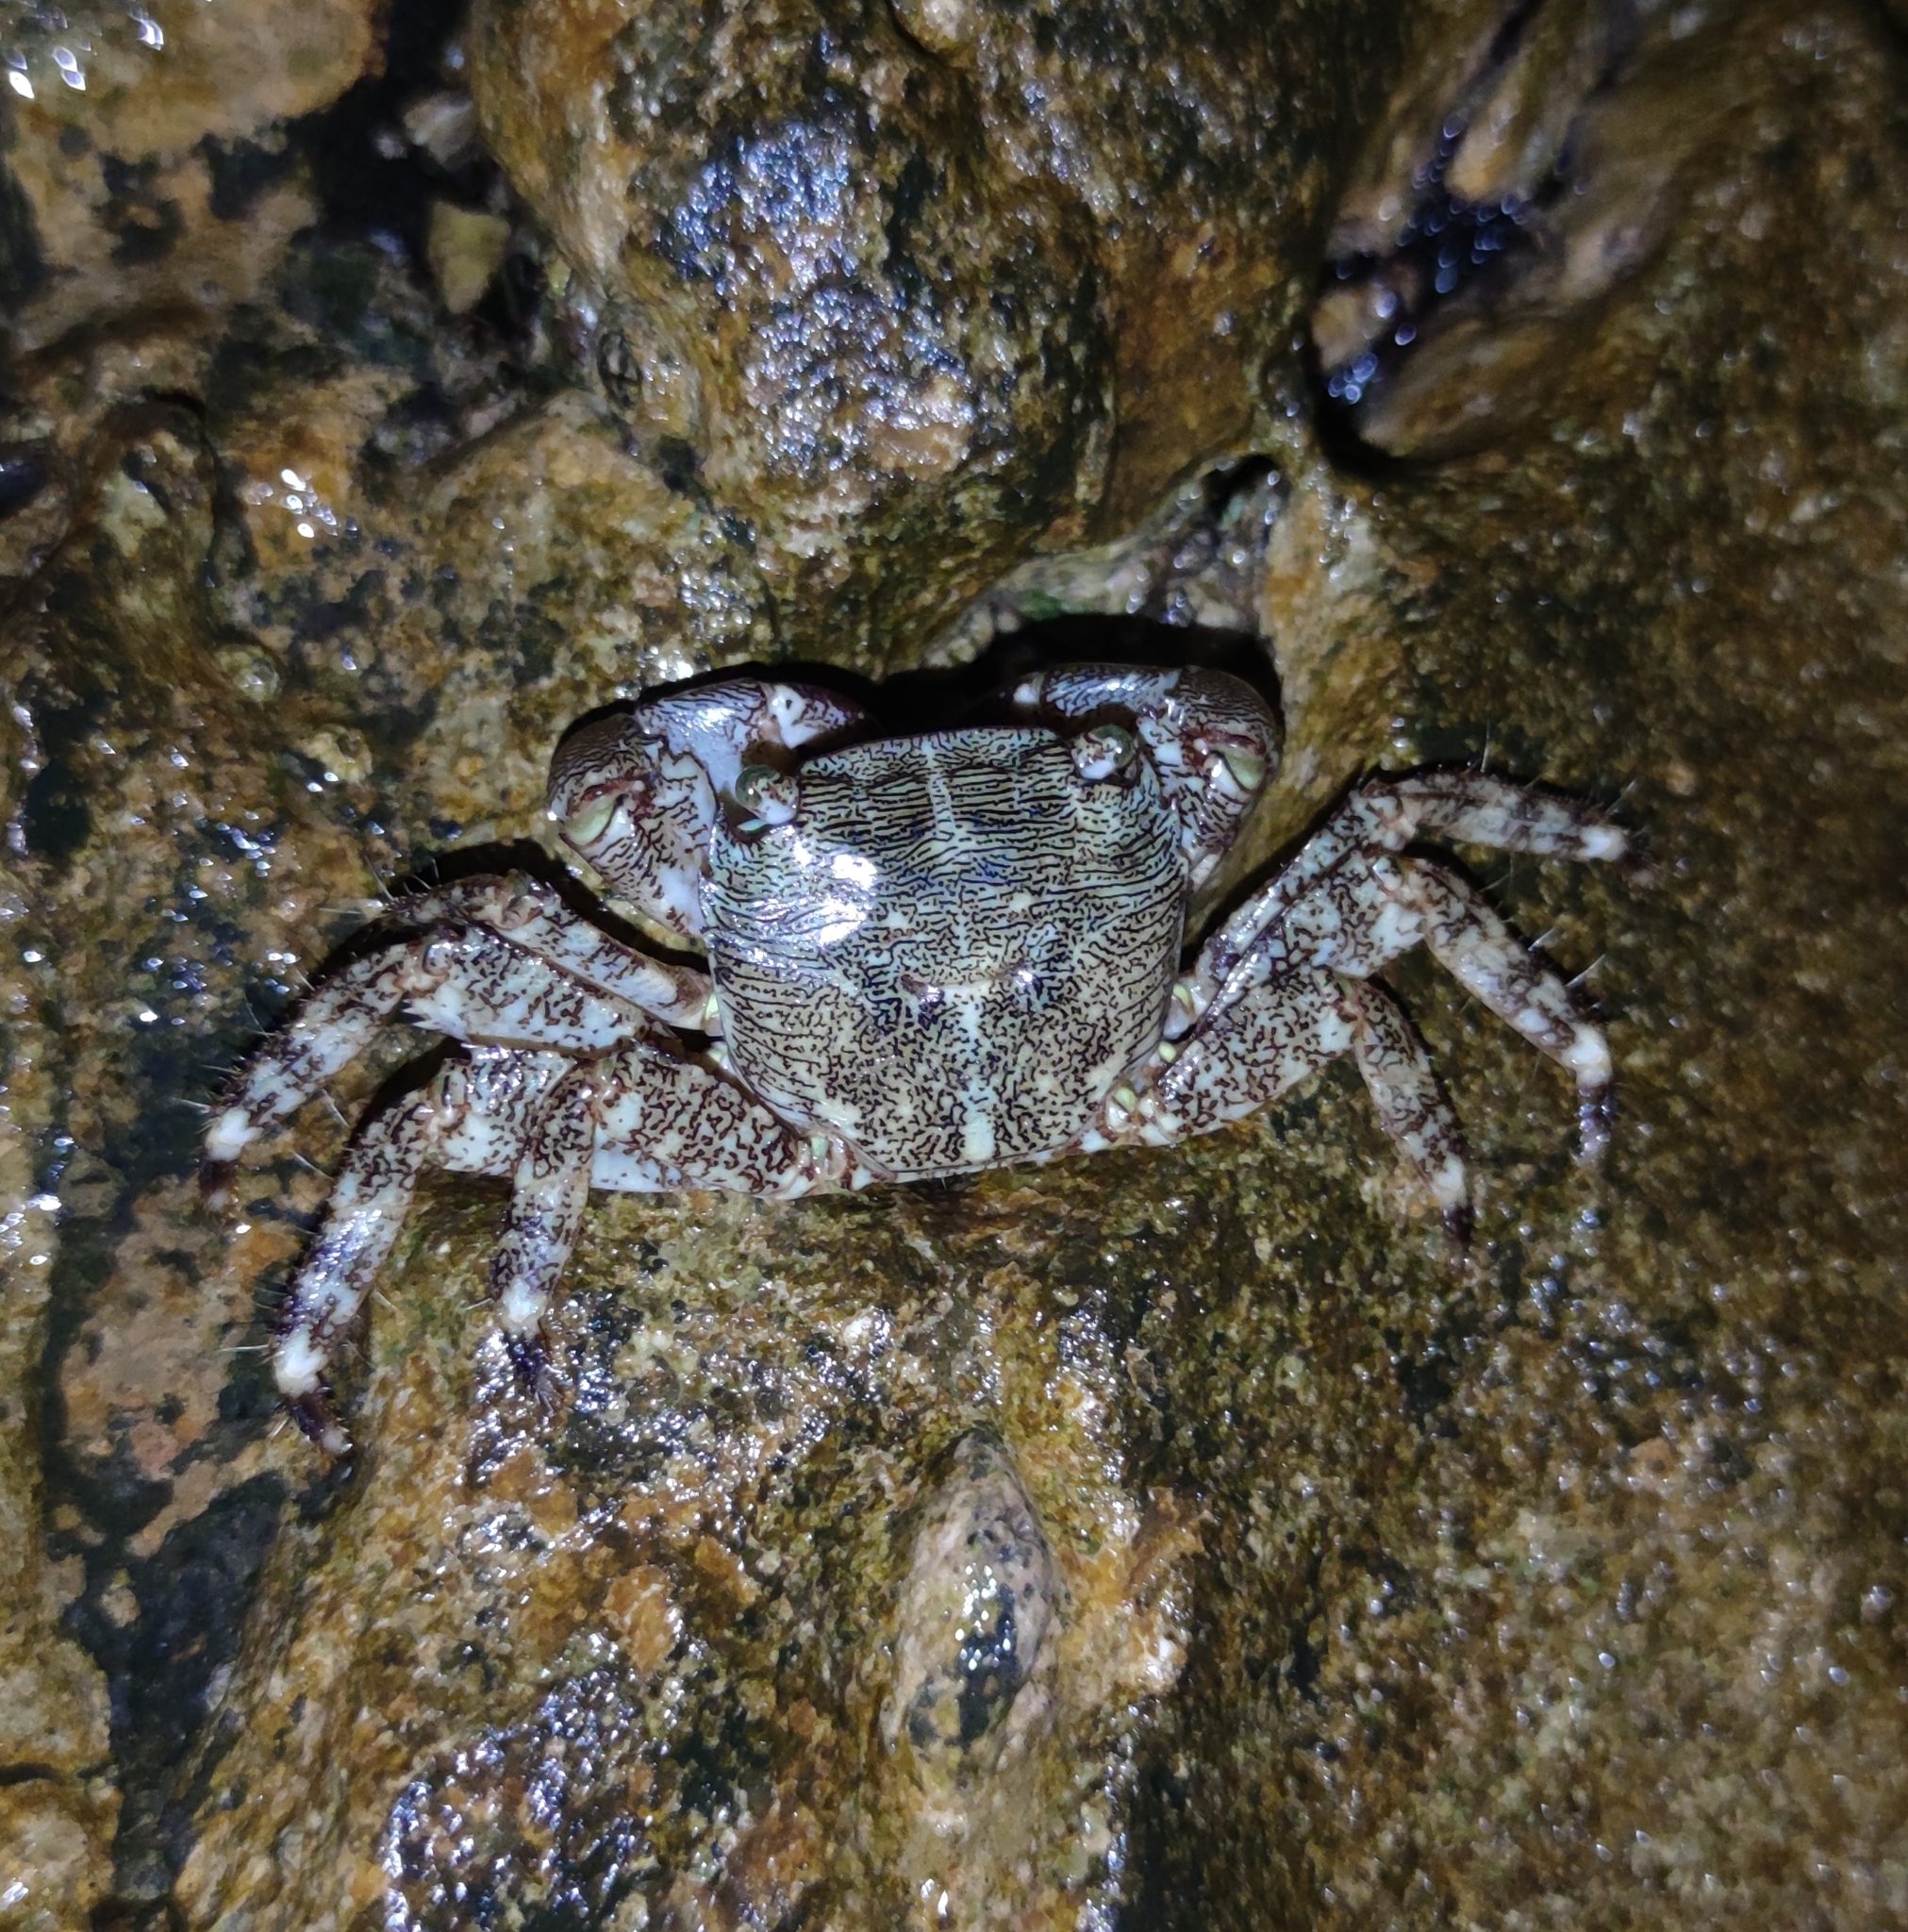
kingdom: Animalia
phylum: Arthropoda
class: Malacostraca
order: Decapoda
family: Grapsidae
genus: Pachygrapsus
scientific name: Pachygrapsus marmoratus
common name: Marbled rock crab
